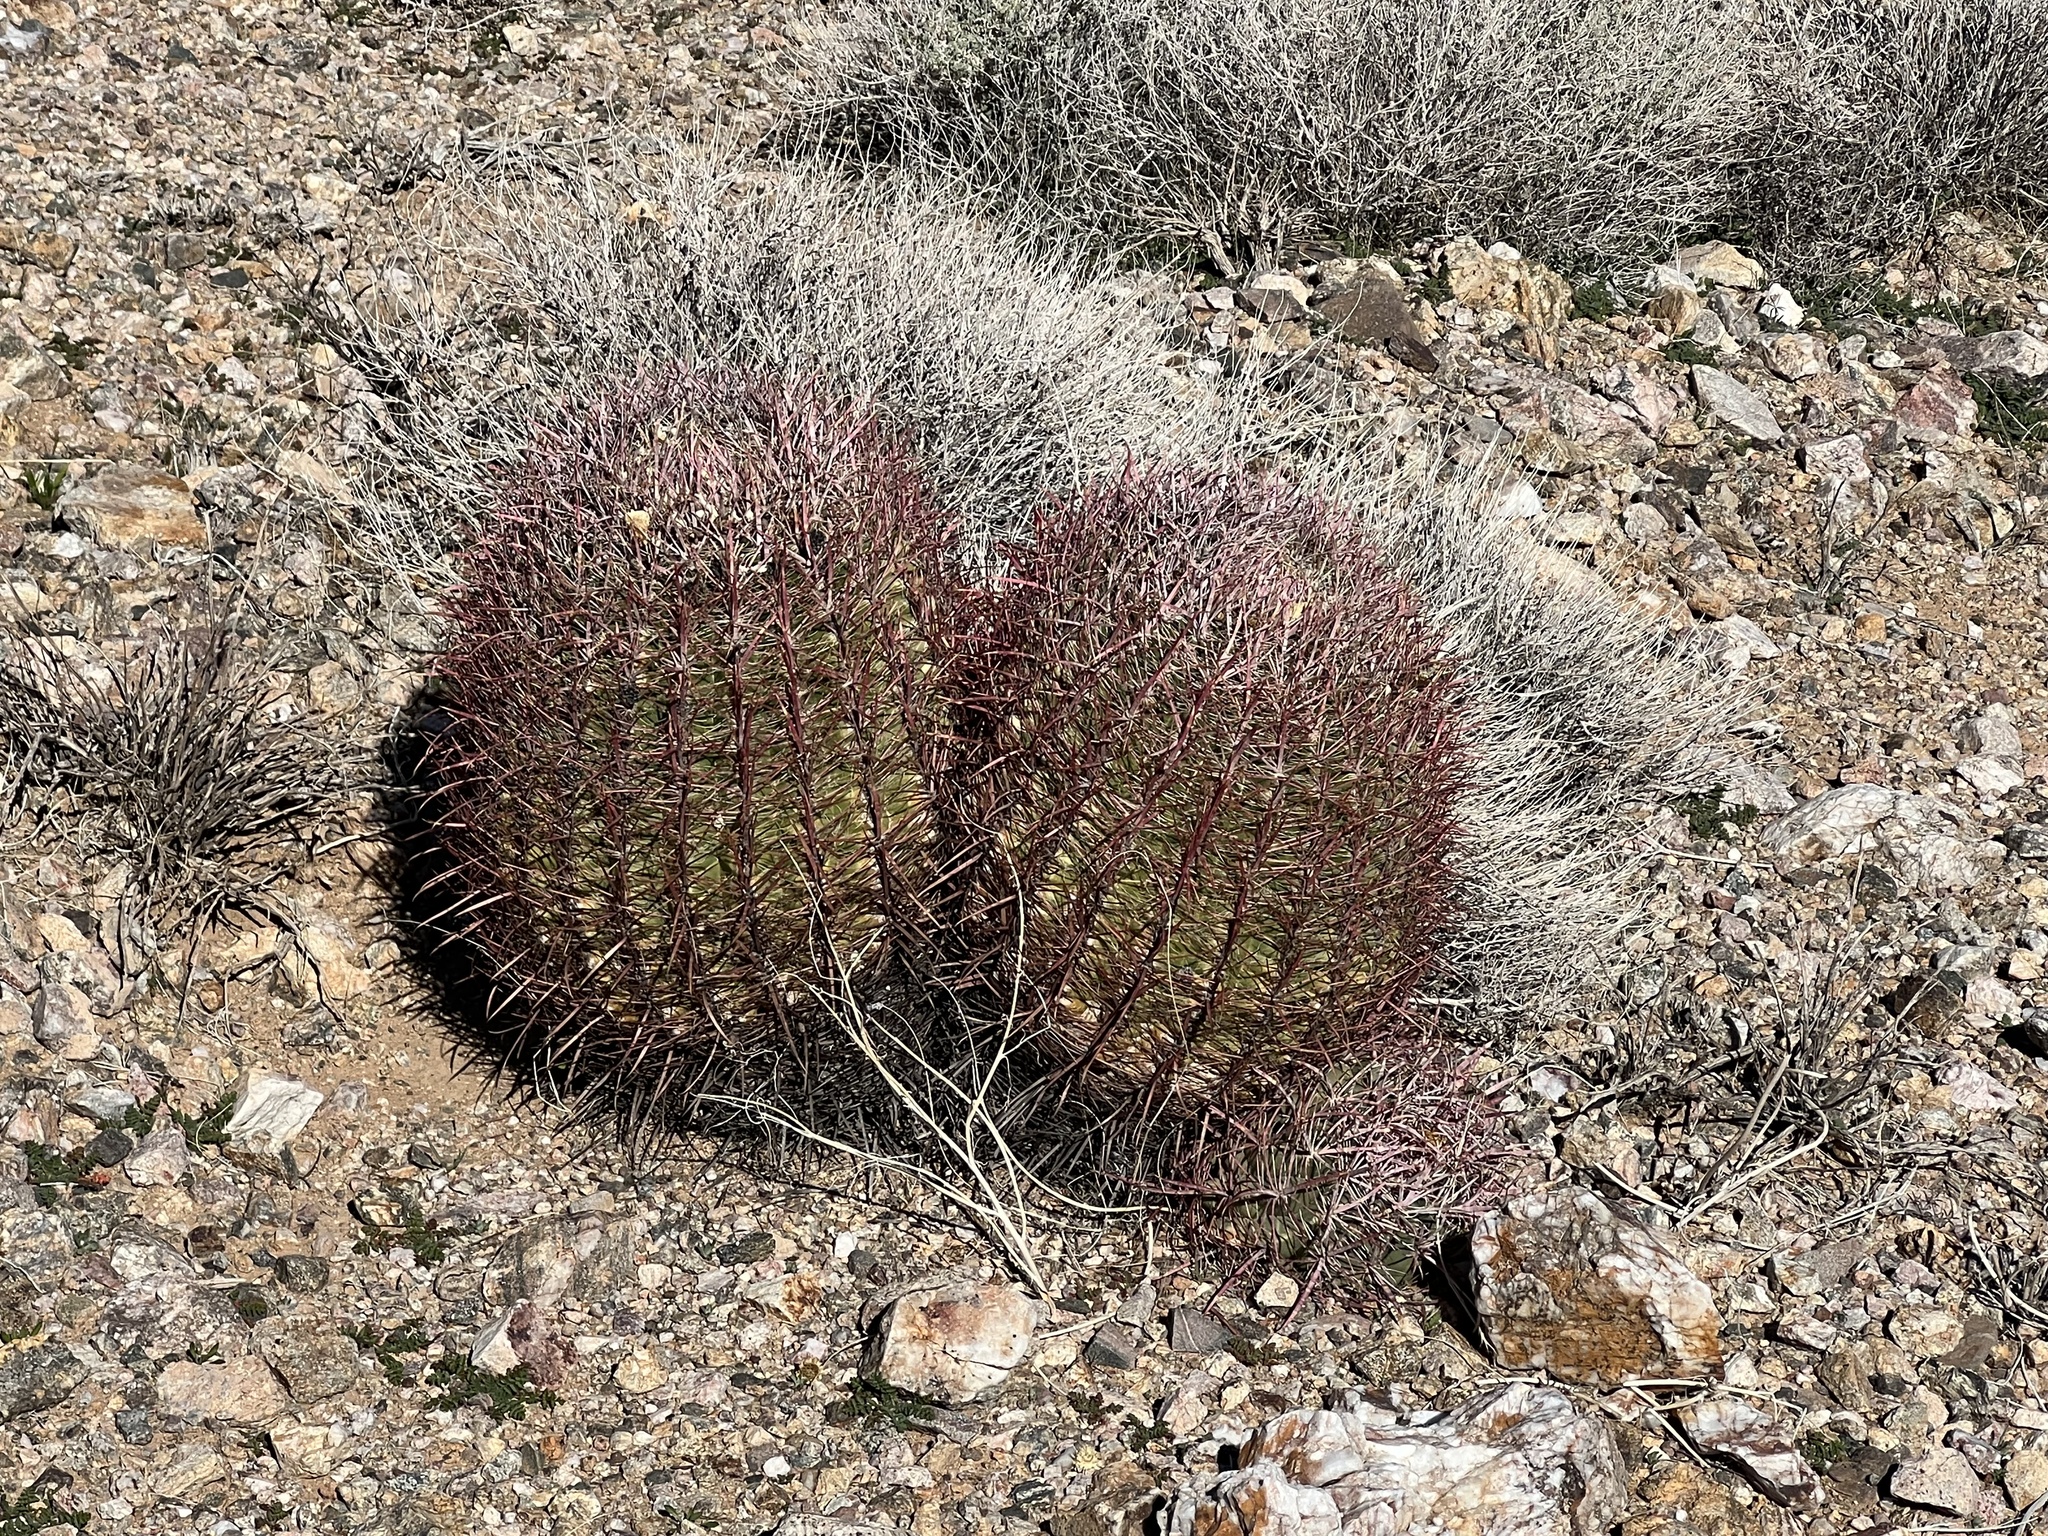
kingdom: Plantae
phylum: Tracheophyta
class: Magnoliopsida
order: Caryophyllales
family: Cactaceae
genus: Ferocactus
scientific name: Ferocactus cylindraceus
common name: California barrel cactus
